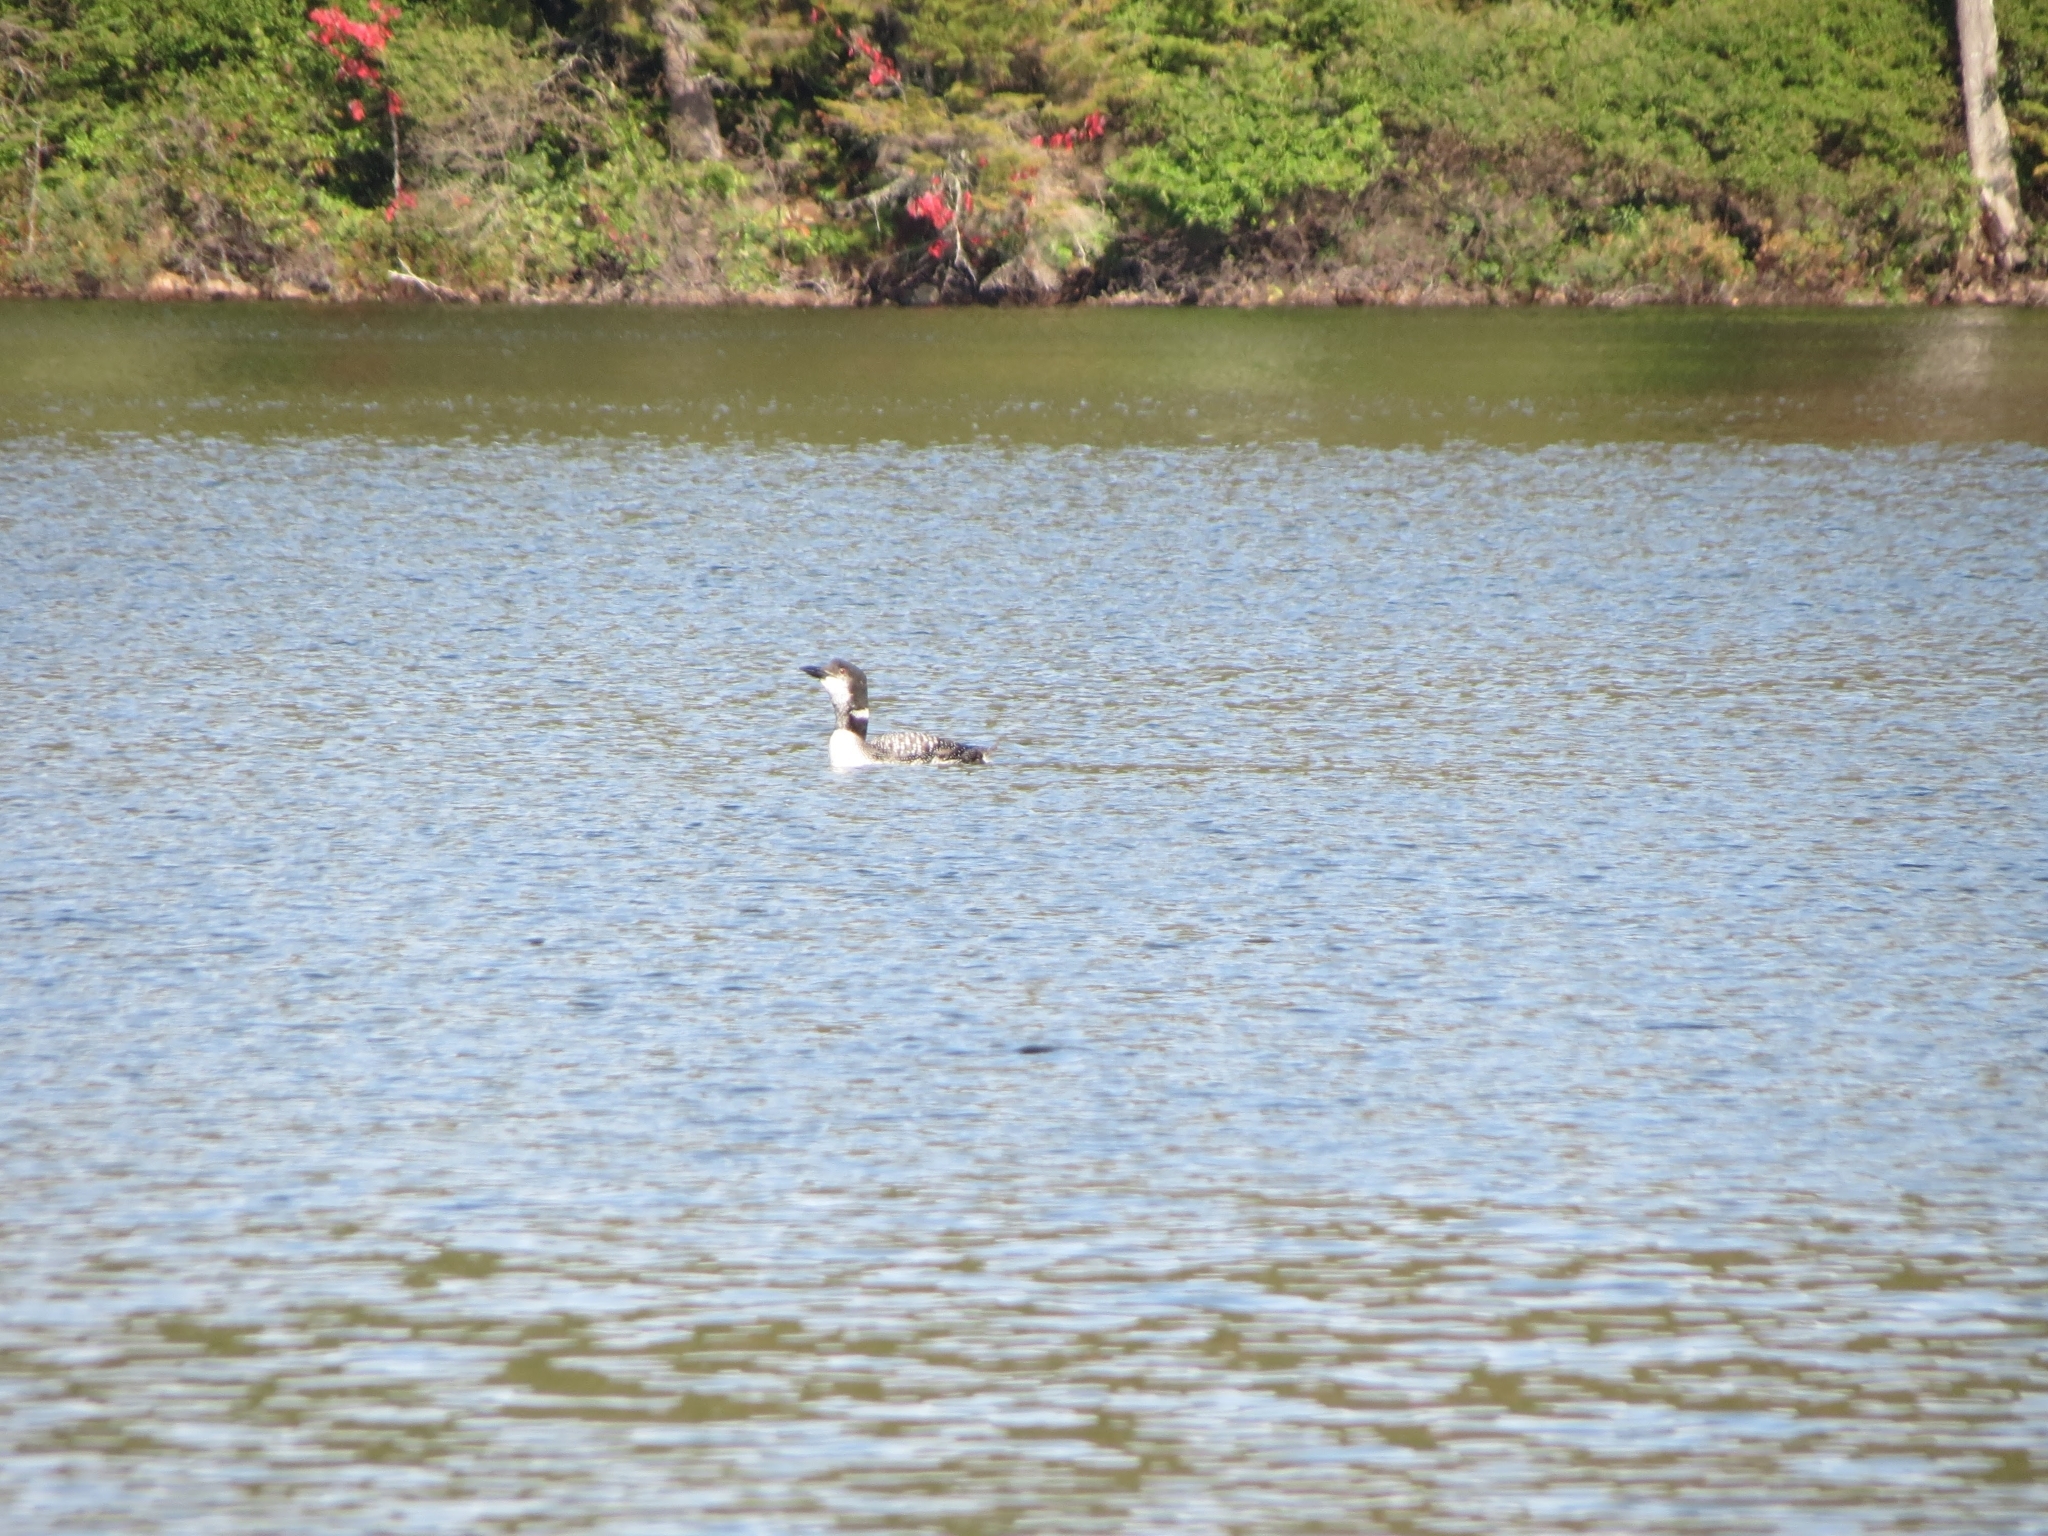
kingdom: Animalia
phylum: Chordata
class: Aves
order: Gaviiformes
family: Gaviidae
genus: Gavia
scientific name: Gavia immer
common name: Common loon
